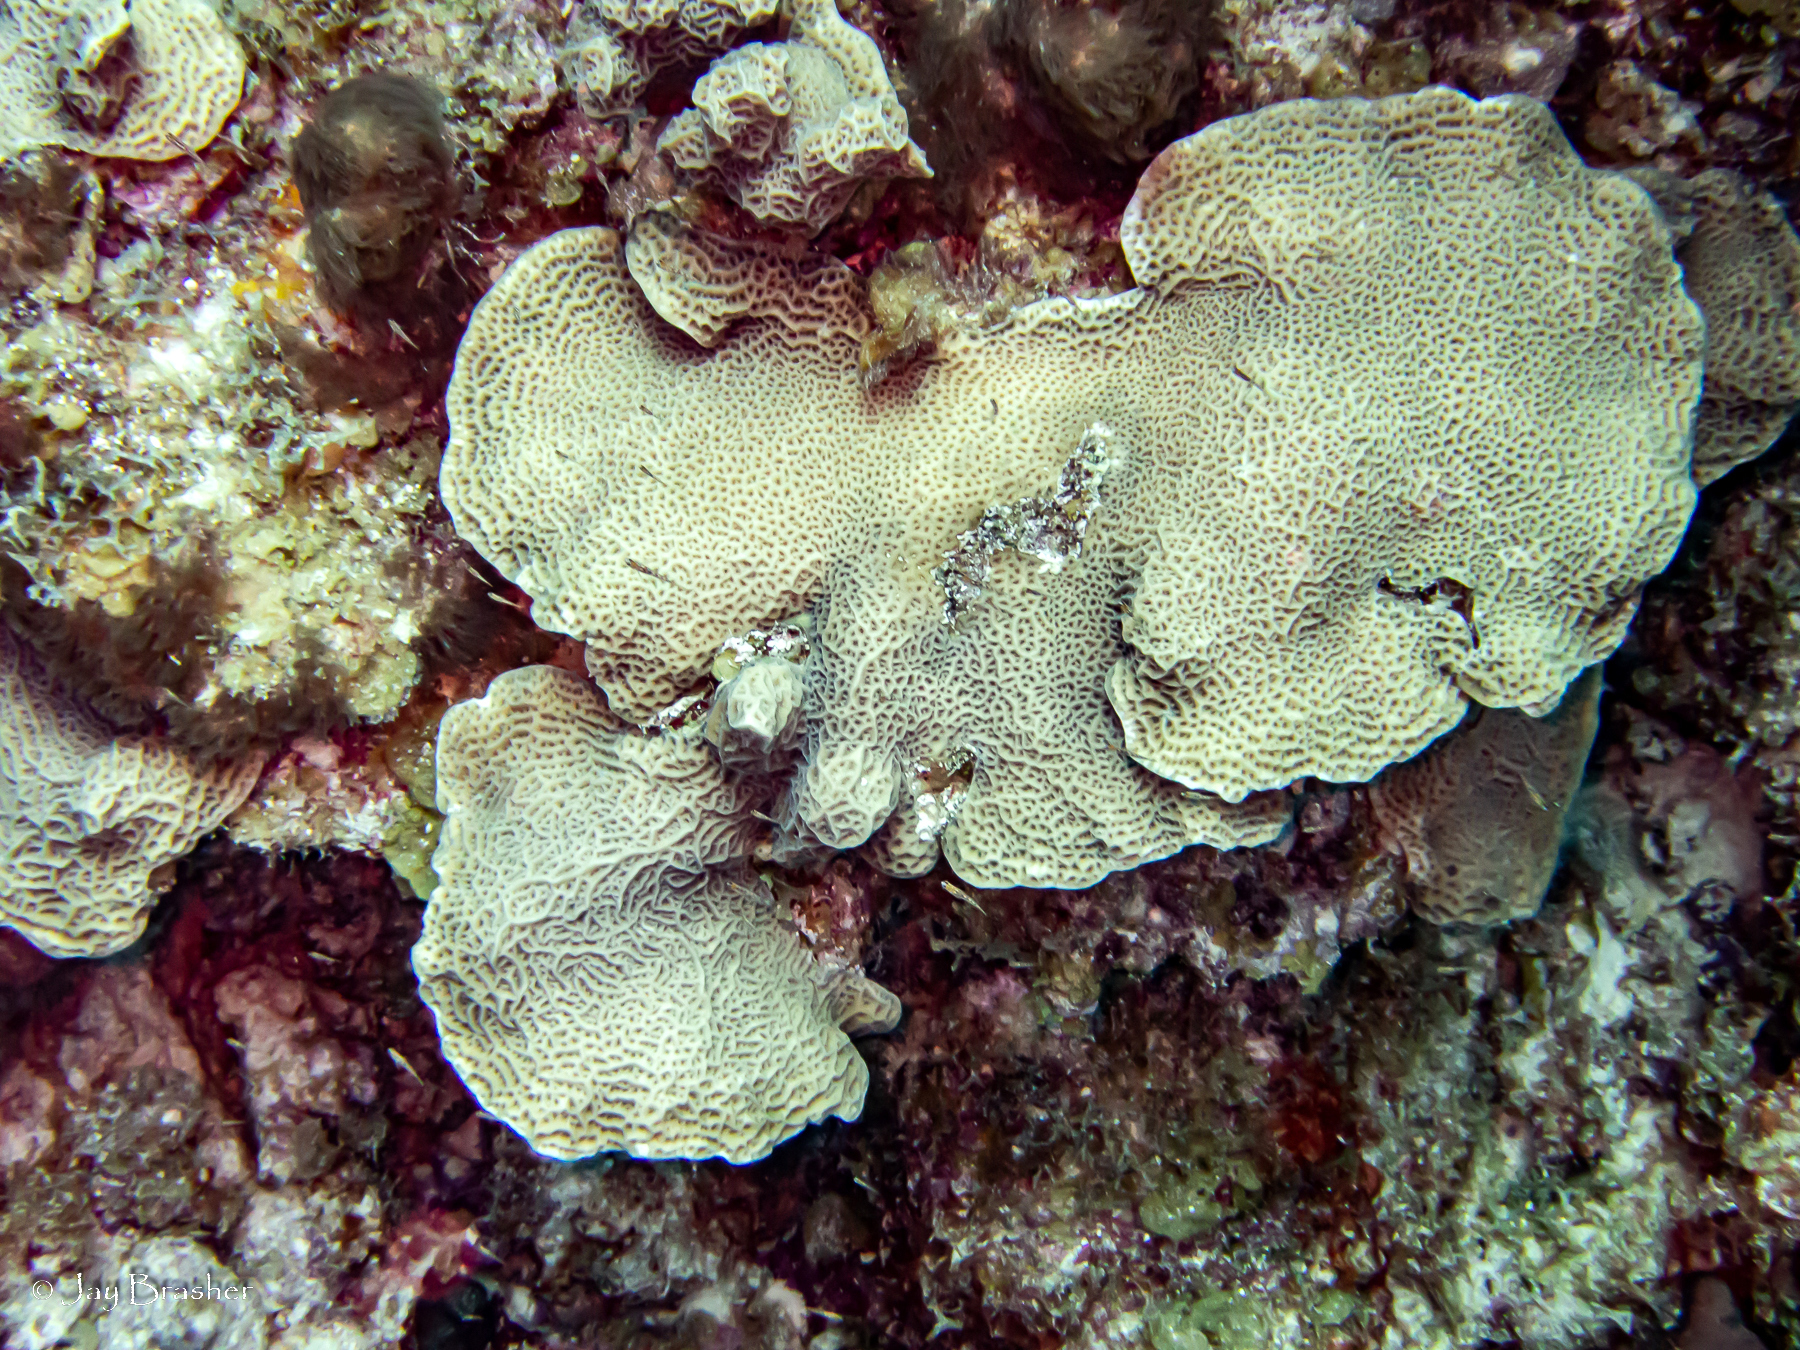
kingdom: Animalia
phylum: Cnidaria
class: Anthozoa
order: Scleractinia
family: Agariciidae
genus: Agaricia
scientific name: Agaricia agaricites
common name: Lettuce coral
